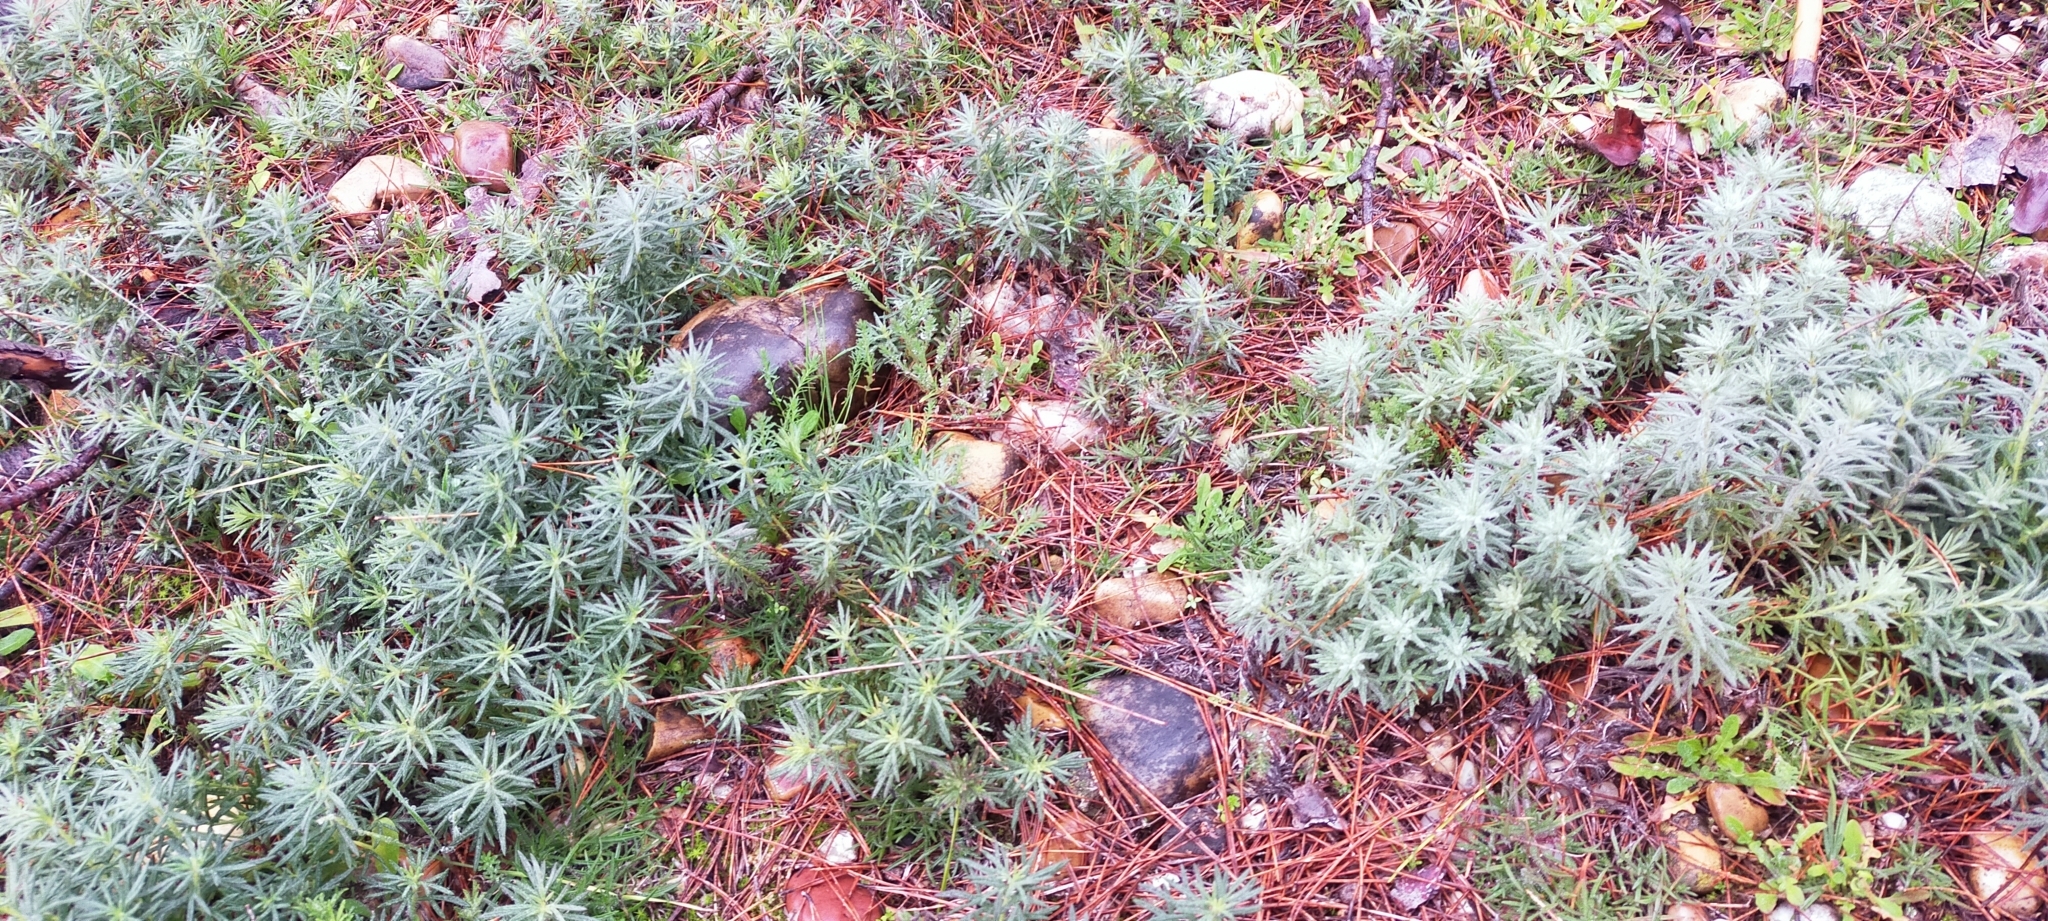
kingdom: Plantae
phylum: Tracheophyta
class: Magnoliopsida
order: Lamiales
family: Lamiaceae
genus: Teucrium
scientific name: Teucrium pseudochamaepitys
